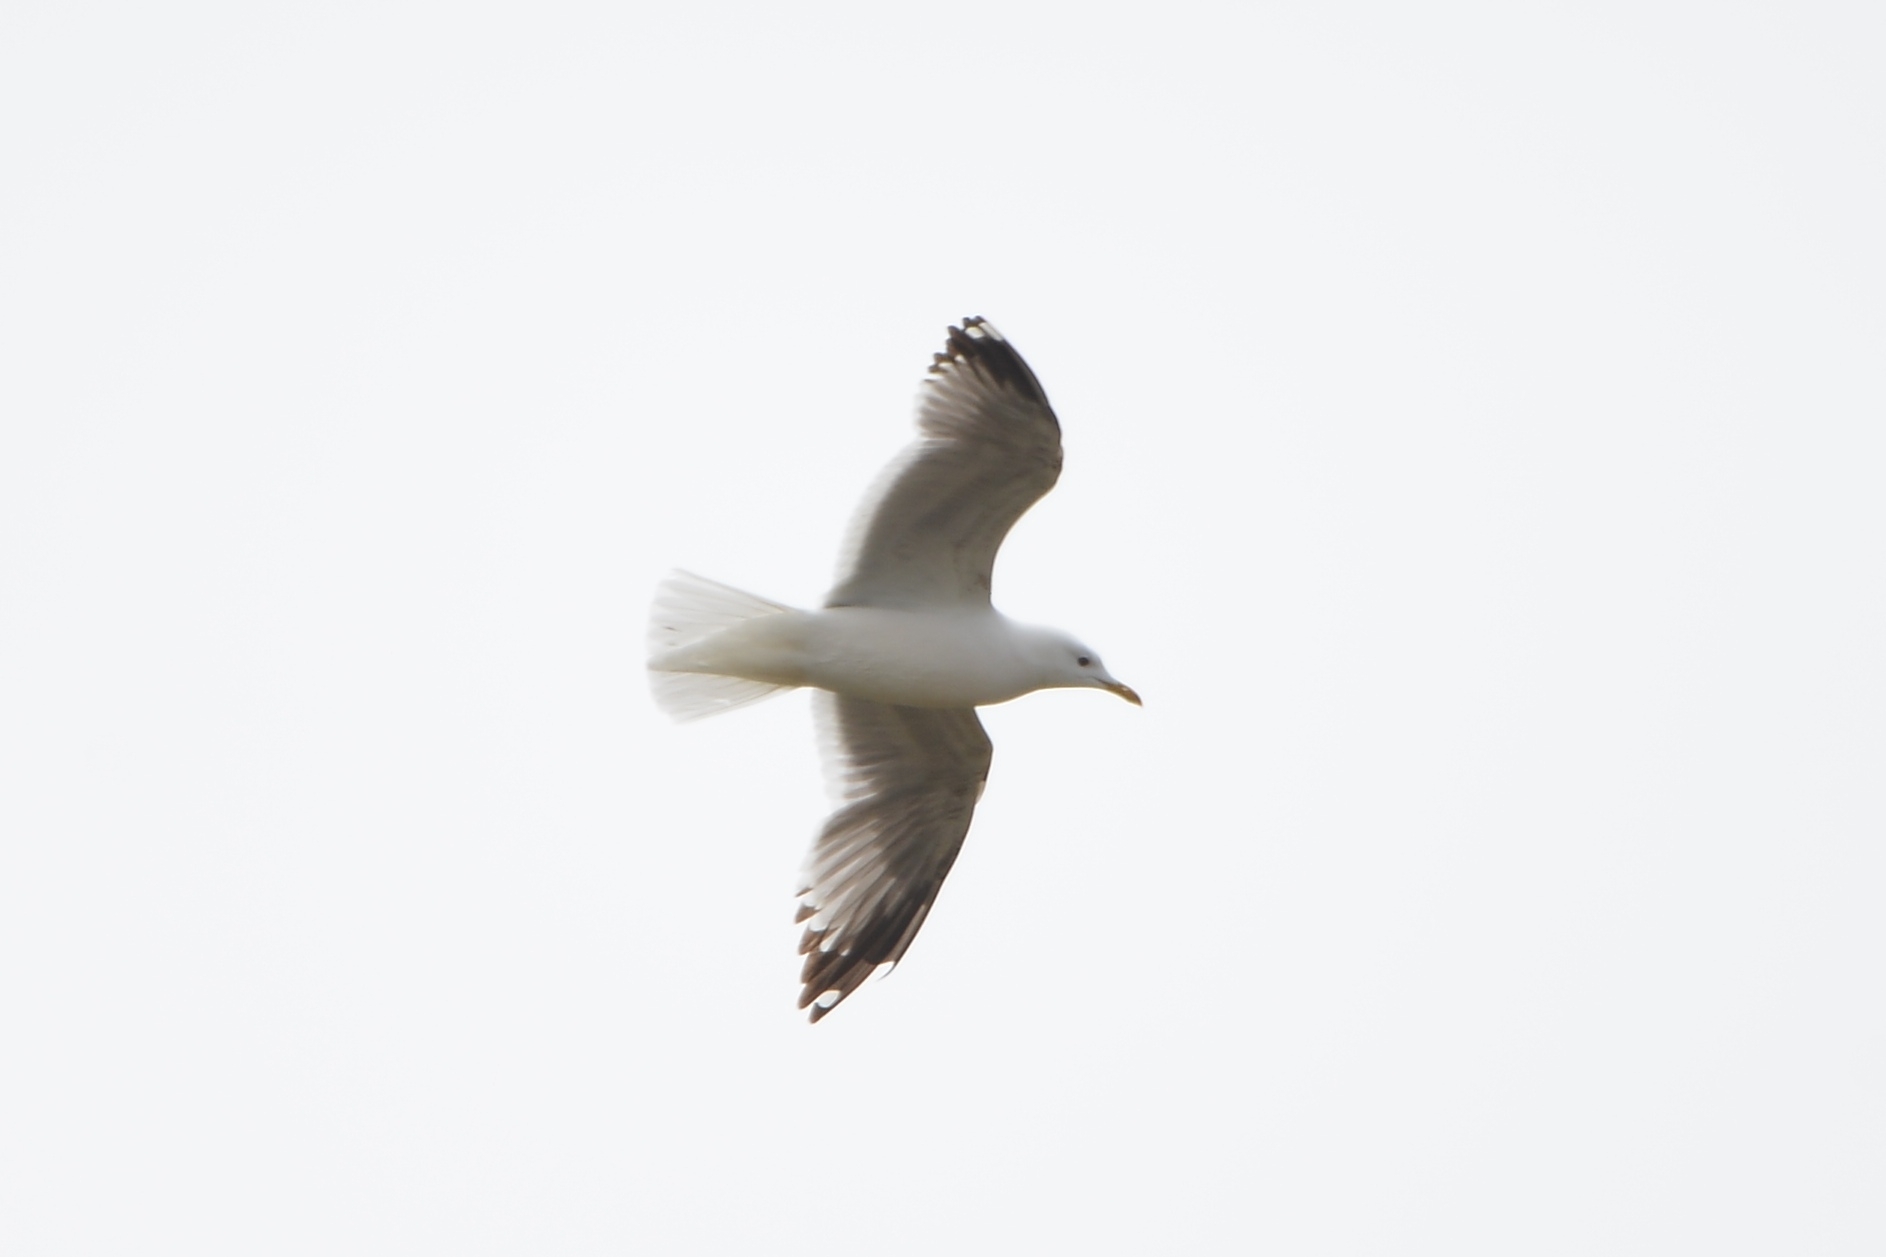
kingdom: Animalia
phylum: Chordata
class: Aves
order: Charadriiformes
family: Laridae
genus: Larus
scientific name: Larus canus
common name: Mew gull
